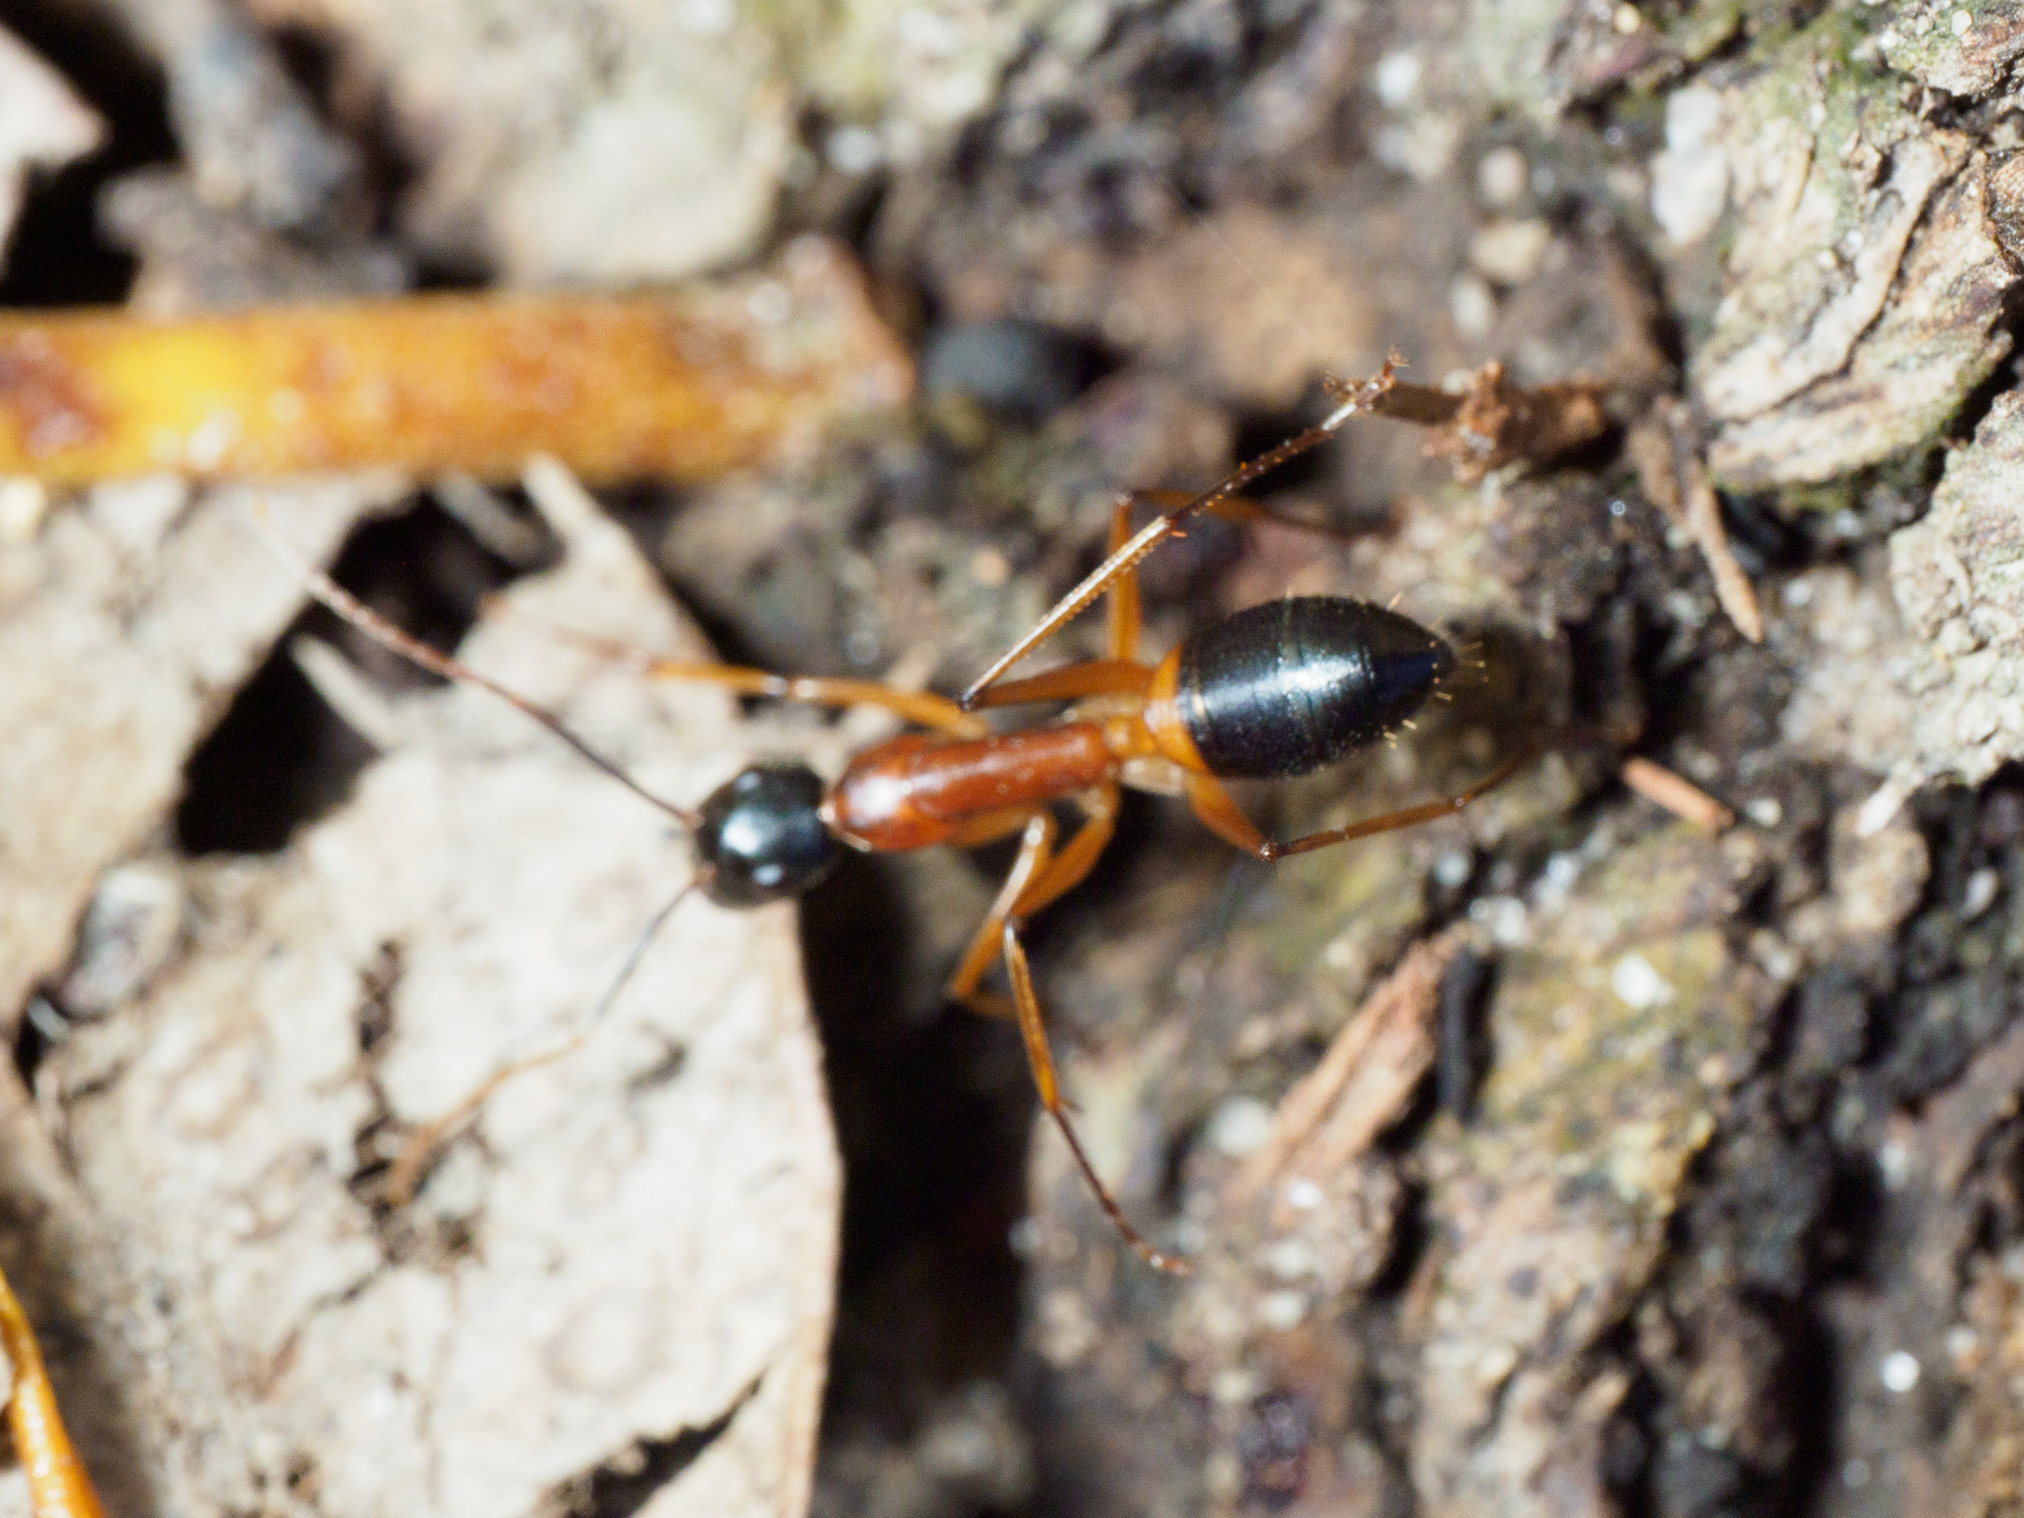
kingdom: Animalia
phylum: Arthropoda
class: Insecta
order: Hymenoptera
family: Formicidae
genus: Camponotus
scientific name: Camponotus consobrinus
